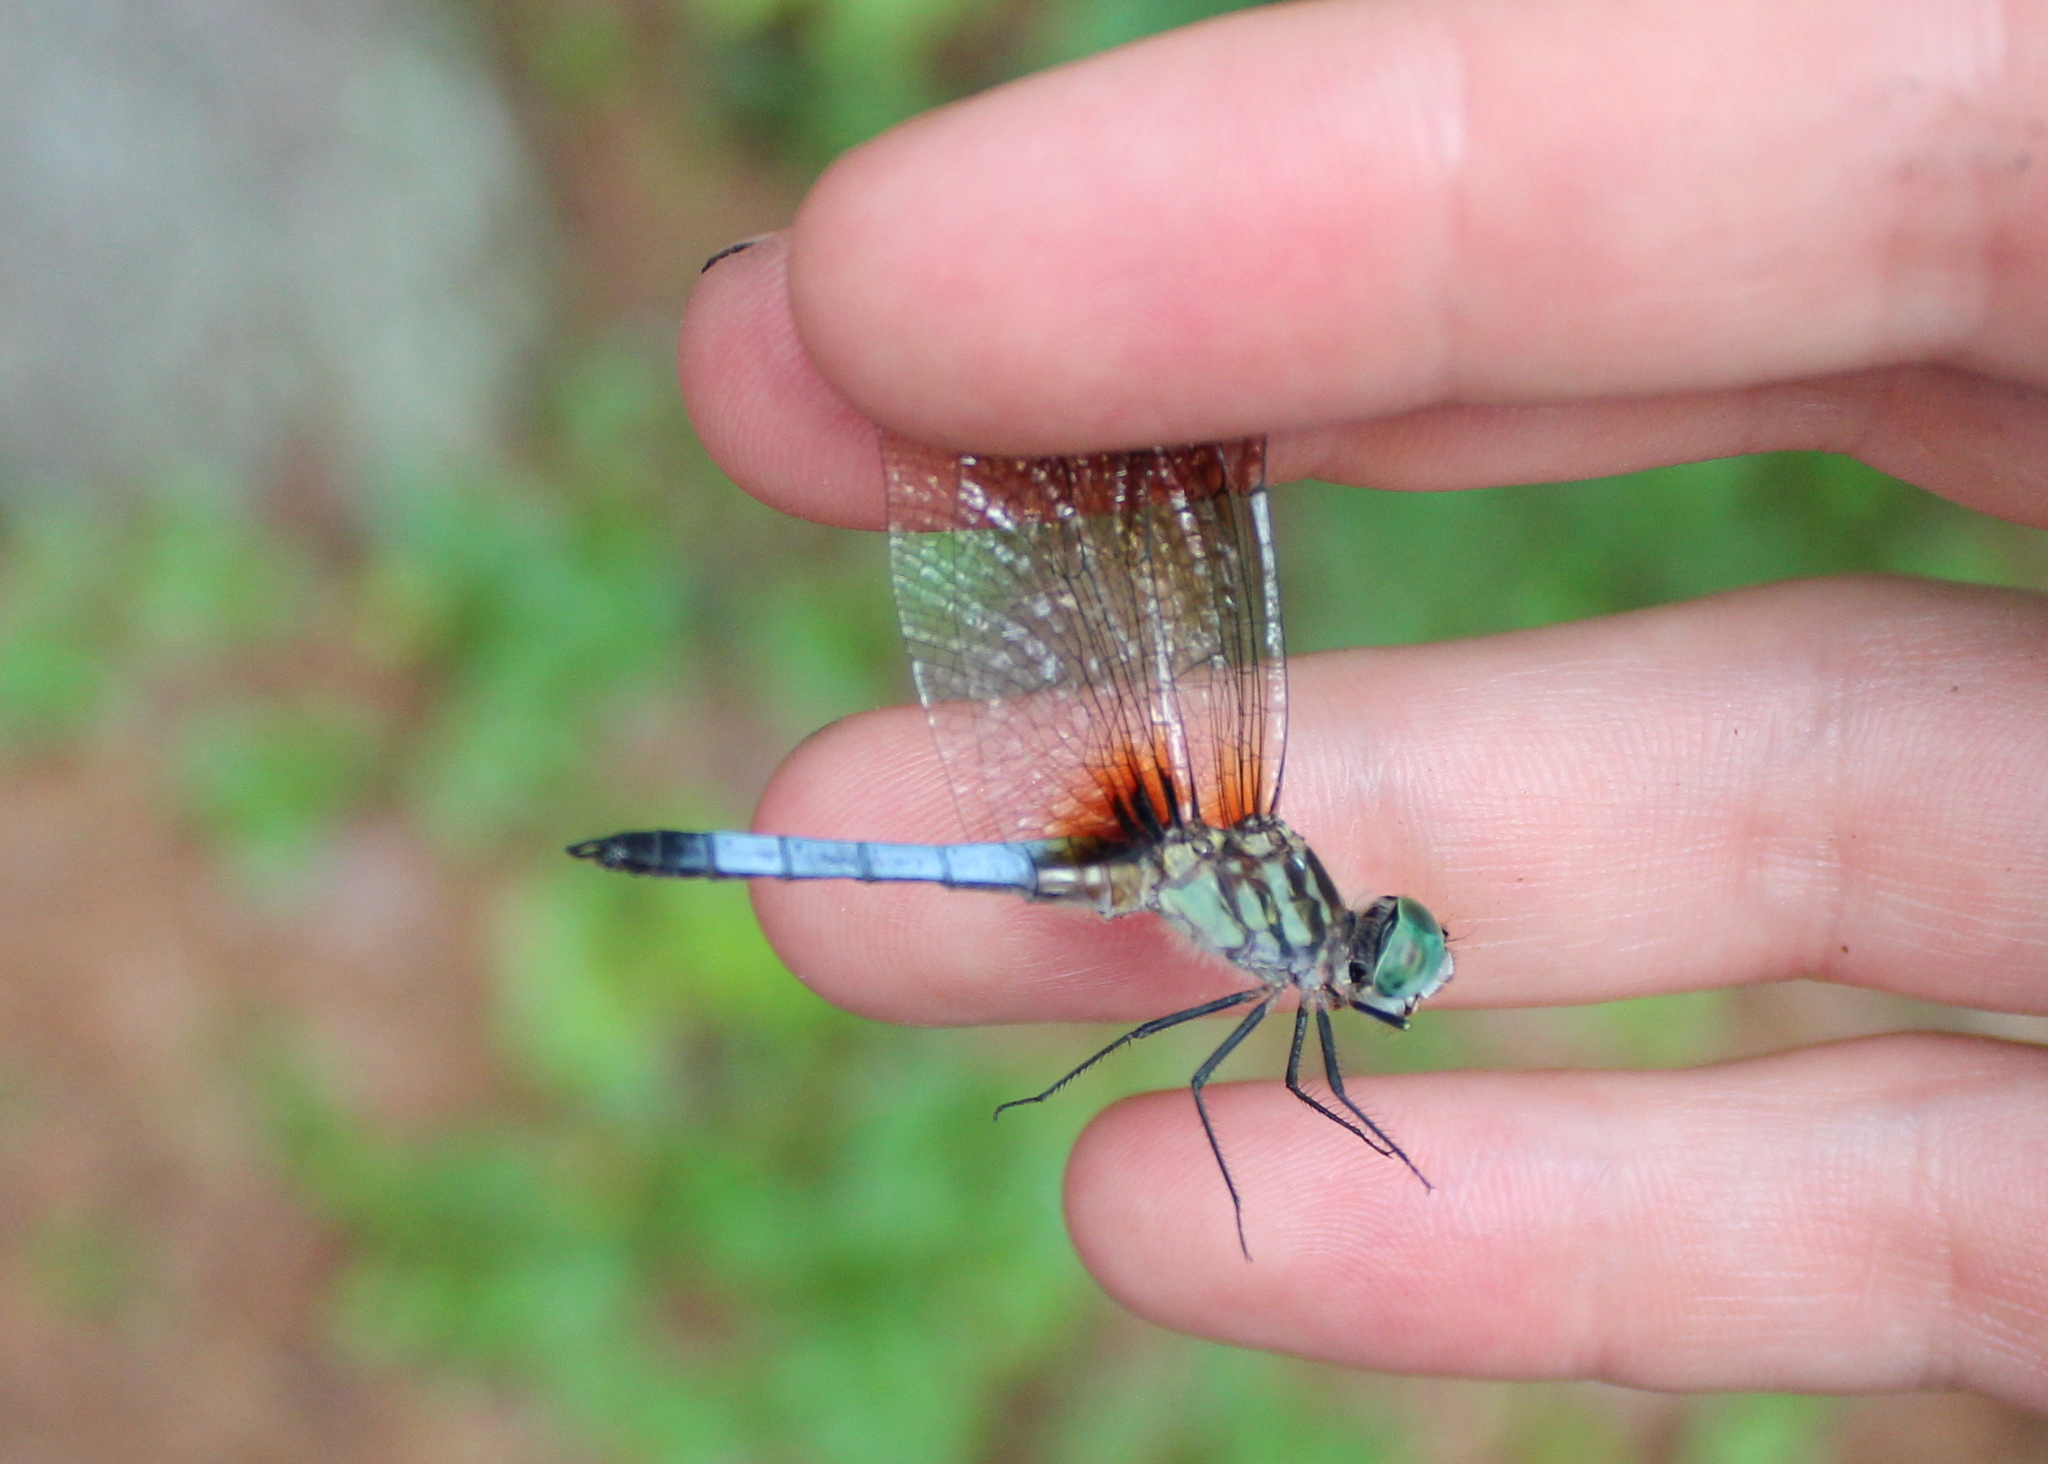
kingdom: Animalia
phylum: Arthropoda
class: Insecta
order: Odonata
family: Libellulidae
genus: Pachydiplax
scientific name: Pachydiplax longipennis
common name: Blue dasher
